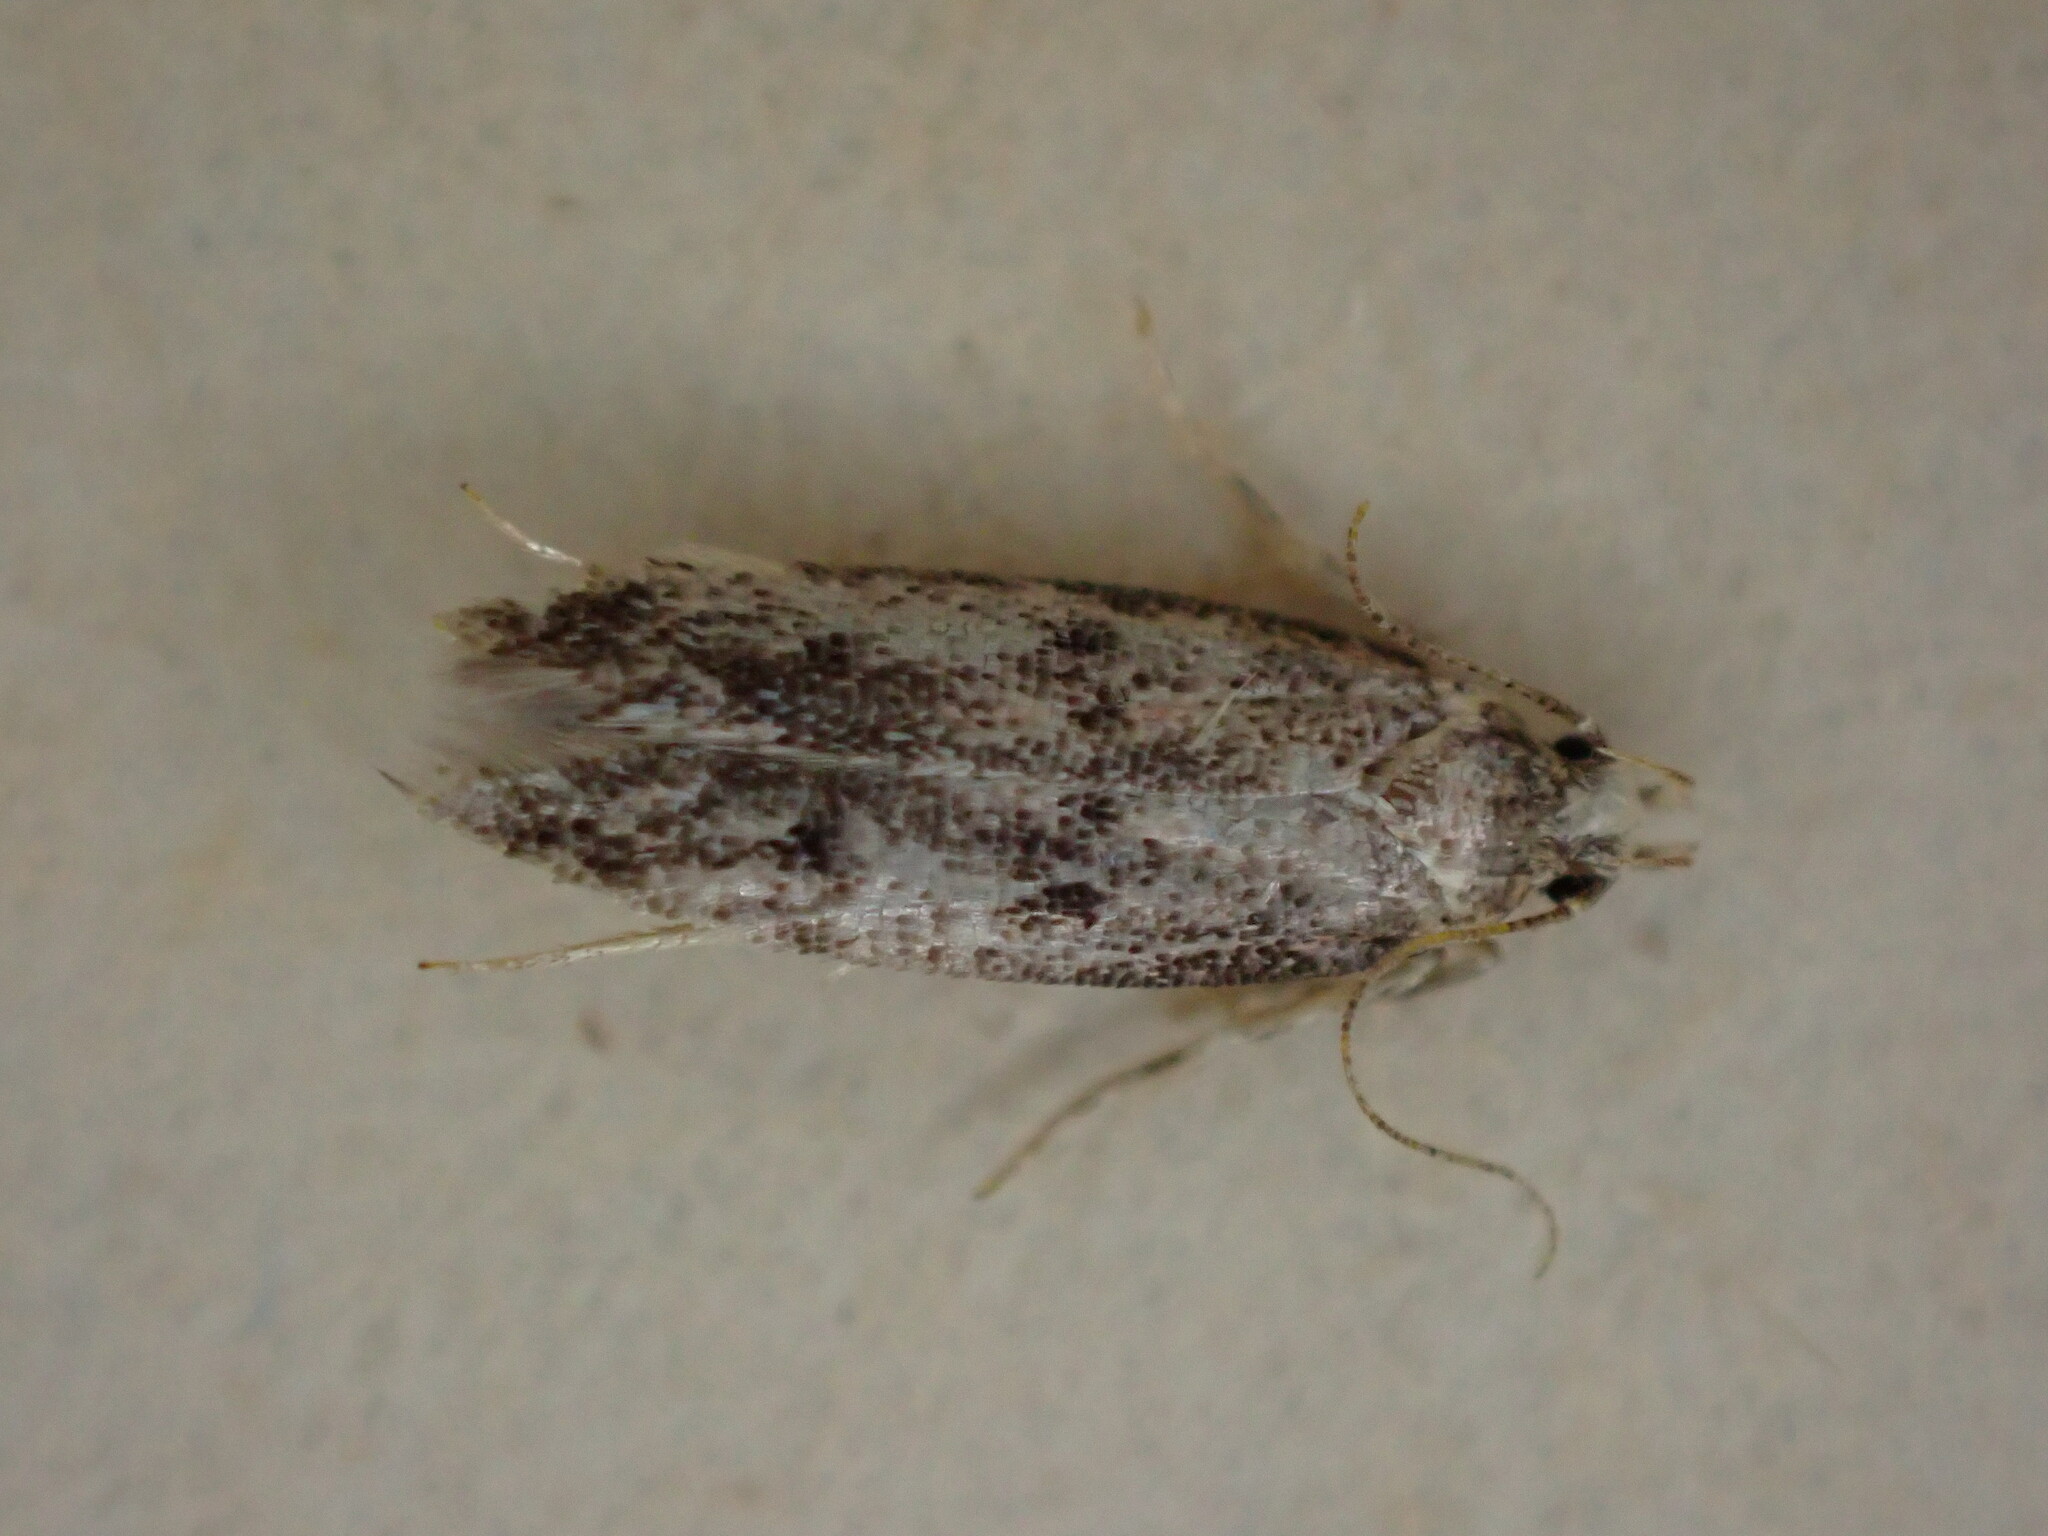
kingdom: Animalia
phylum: Arthropoda
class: Insecta
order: Lepidoptera
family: Oecophoridae
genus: Hofmannophila
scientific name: Hofmannophila pseudospretella
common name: Brown house moth
